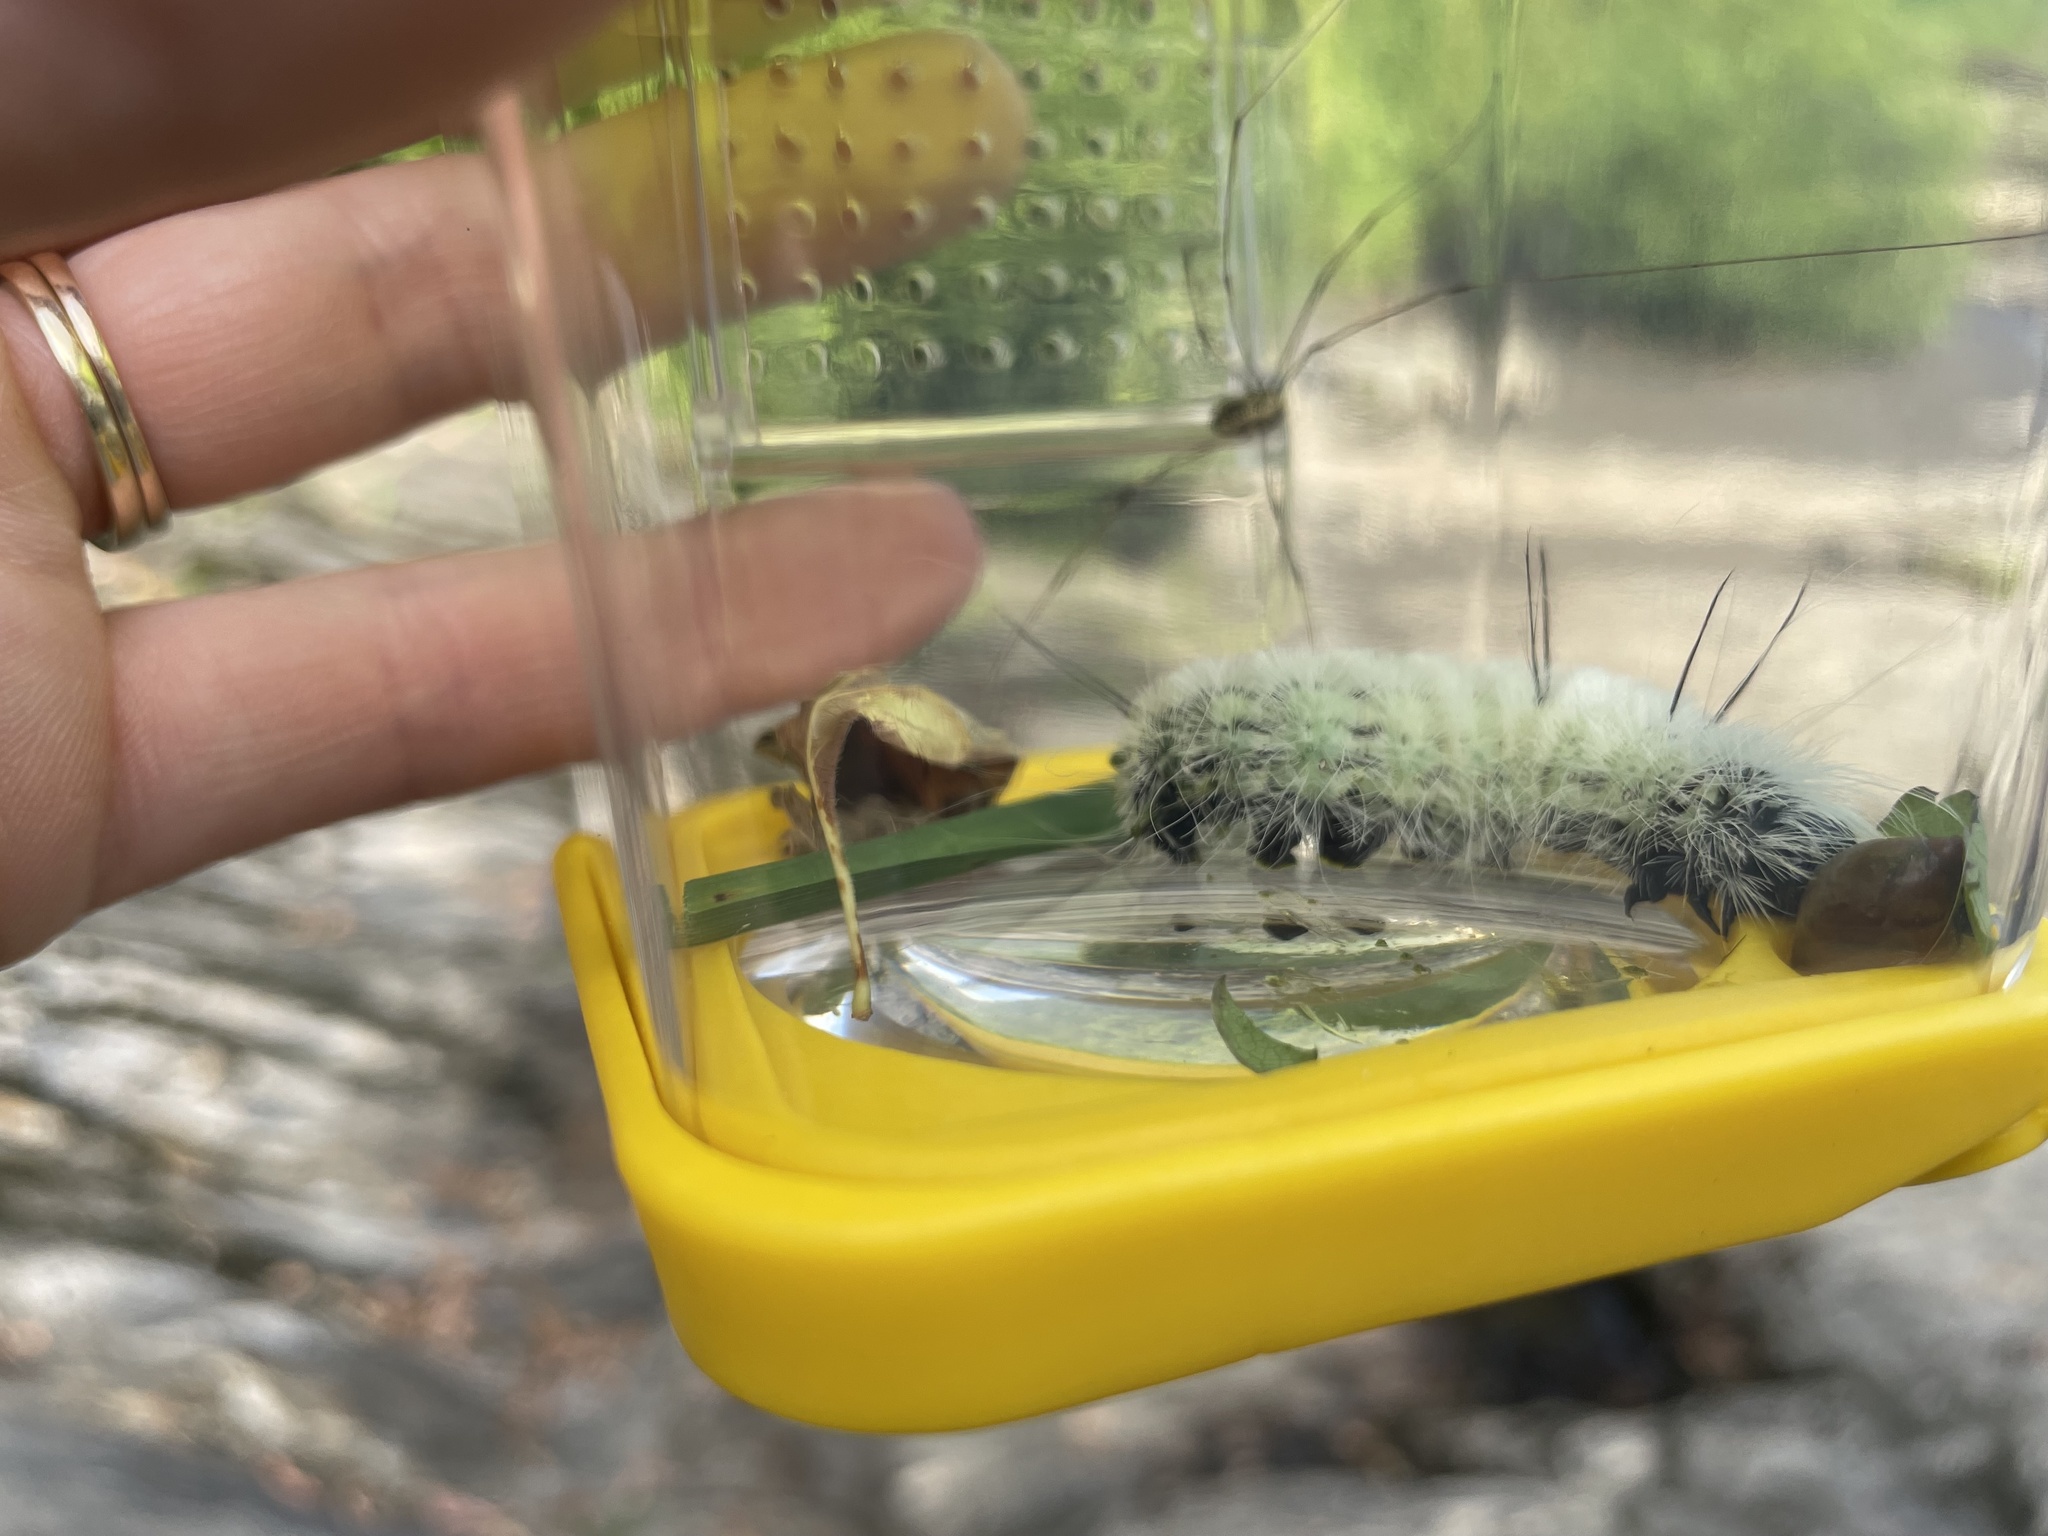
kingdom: Animalia
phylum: Arthropoda
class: Insecta
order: Lepidoptera
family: Noctuidae
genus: Acronicta
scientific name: Acronicta americana
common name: American dagger
